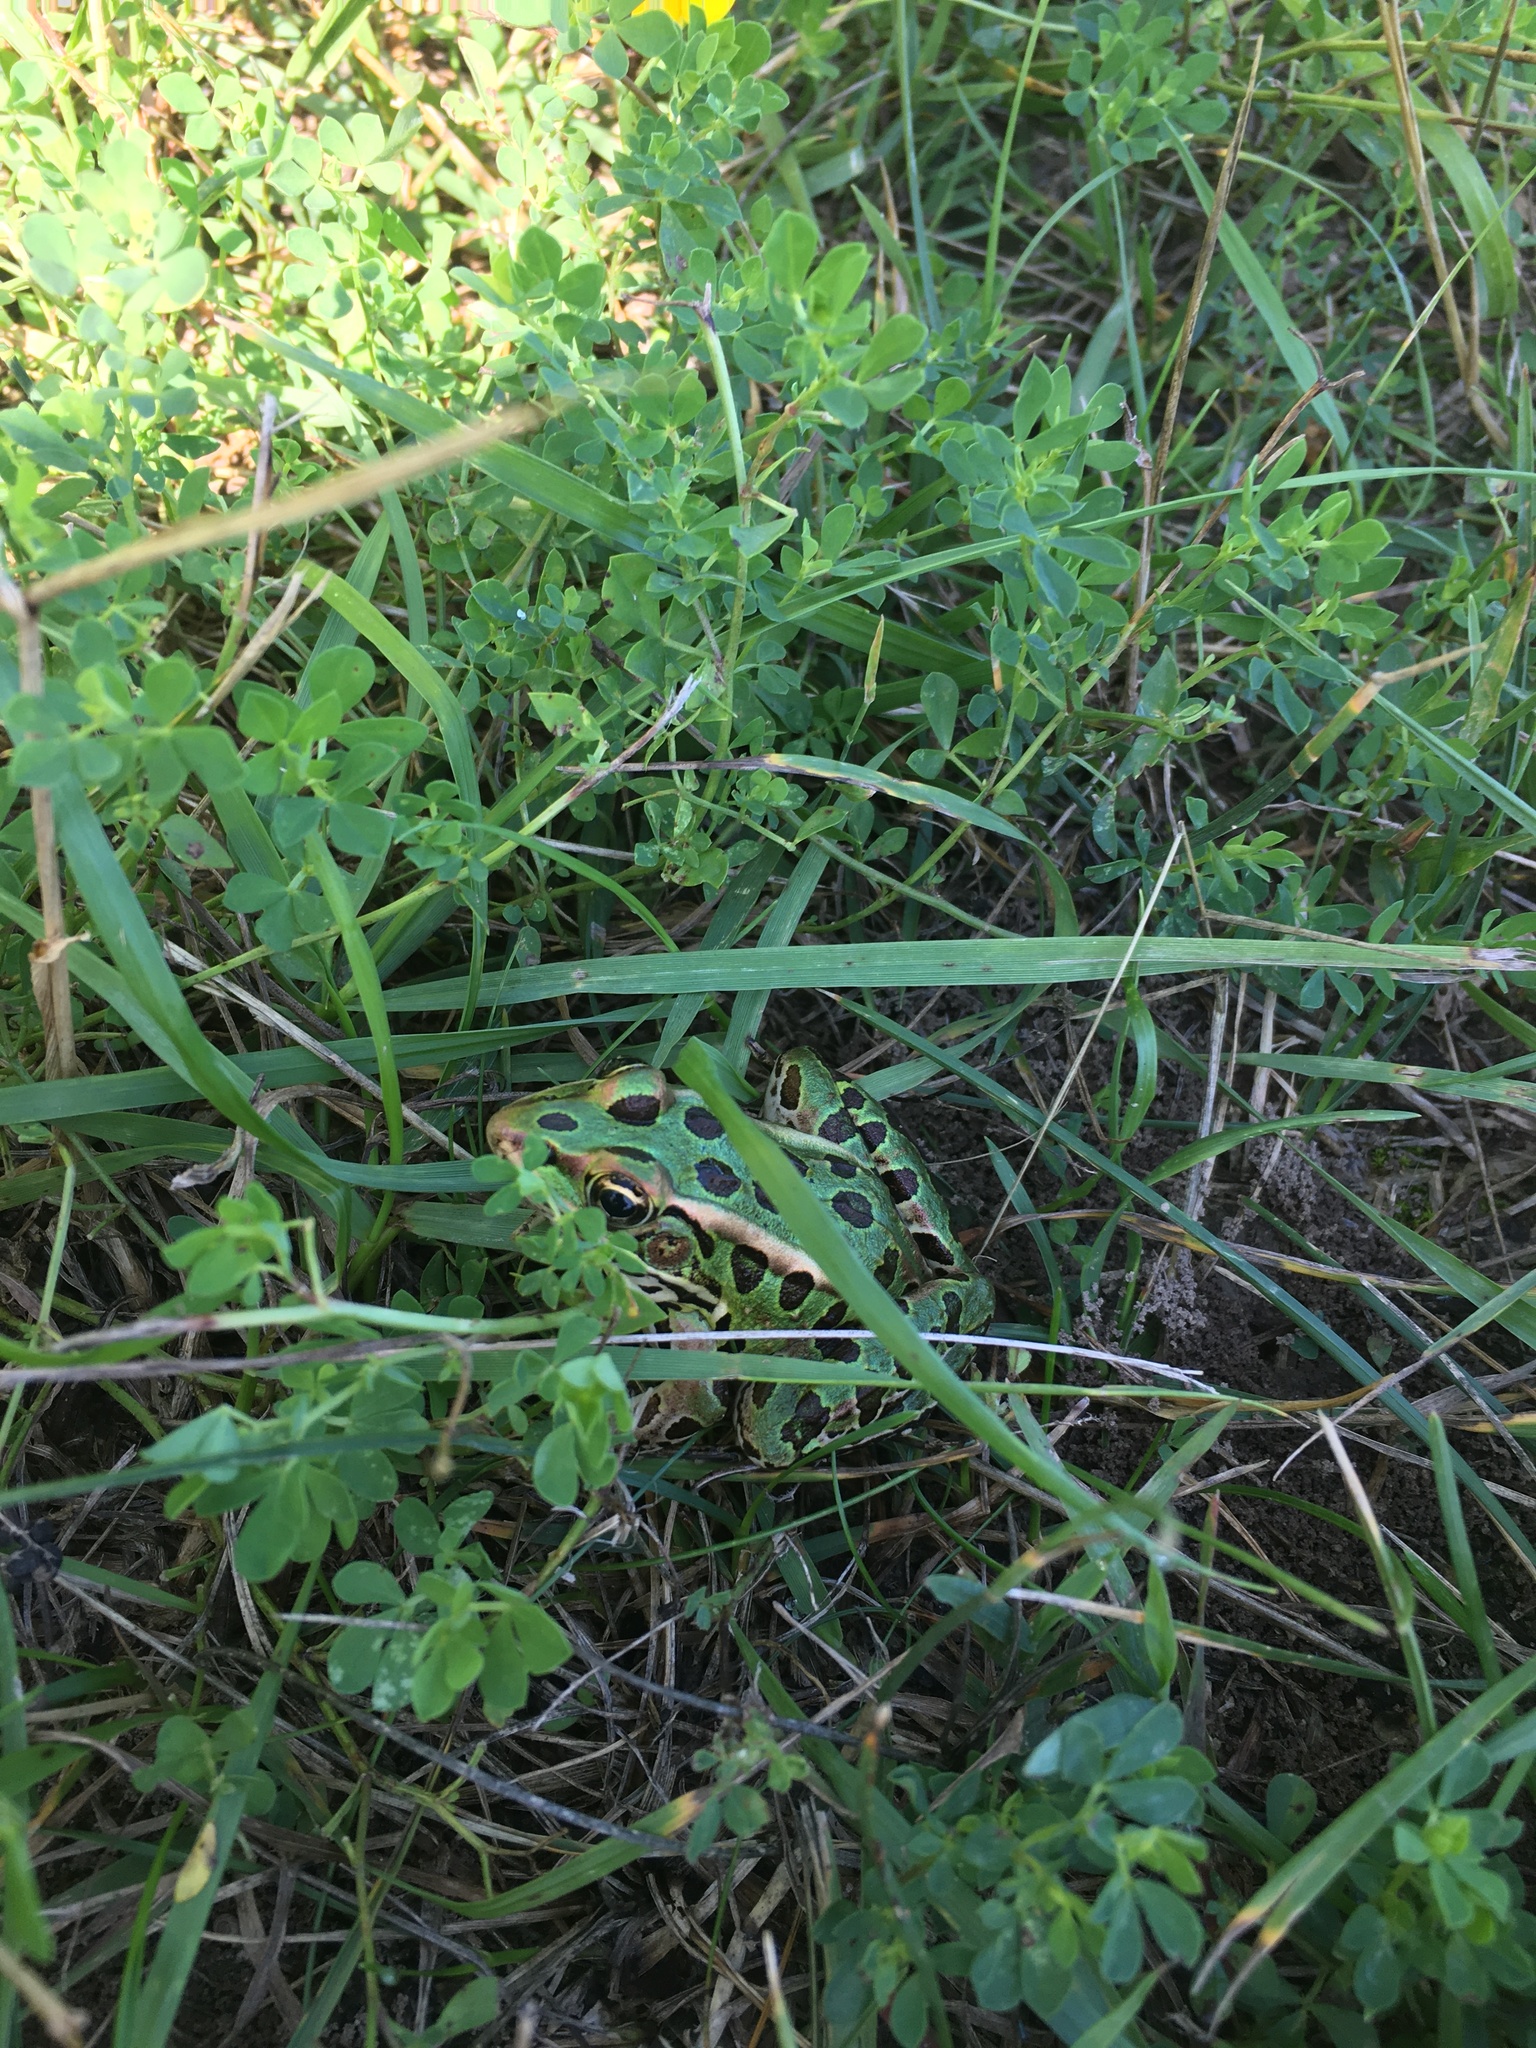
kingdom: Animalia
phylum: Chordata
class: Amphibia
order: Anura
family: Ranidae
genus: Lithobates
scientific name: Lithobates pipiens
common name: Northern leopard frog
